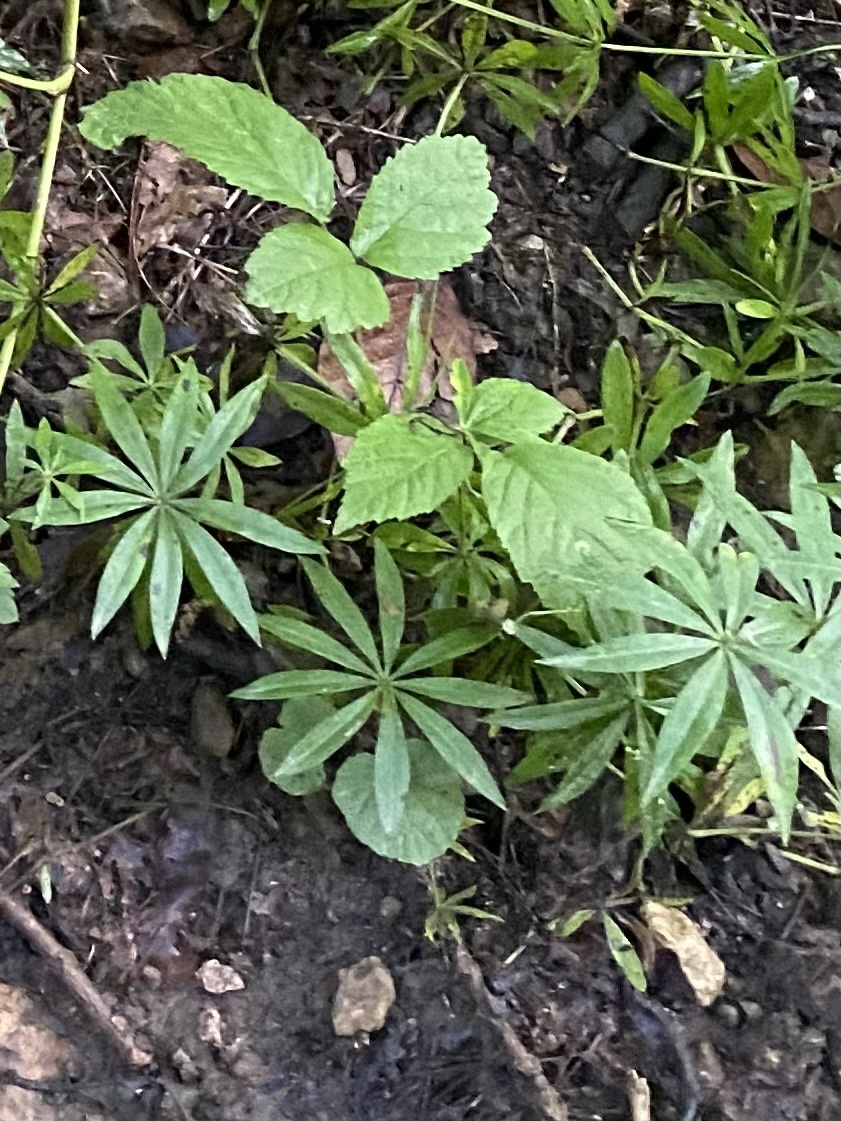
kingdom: Plantae
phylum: Tracheophyta
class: Magnoliopsida
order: Gentianales
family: Rubiaceae
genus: Galium
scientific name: Galium odoratum
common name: Sweet woodruff
